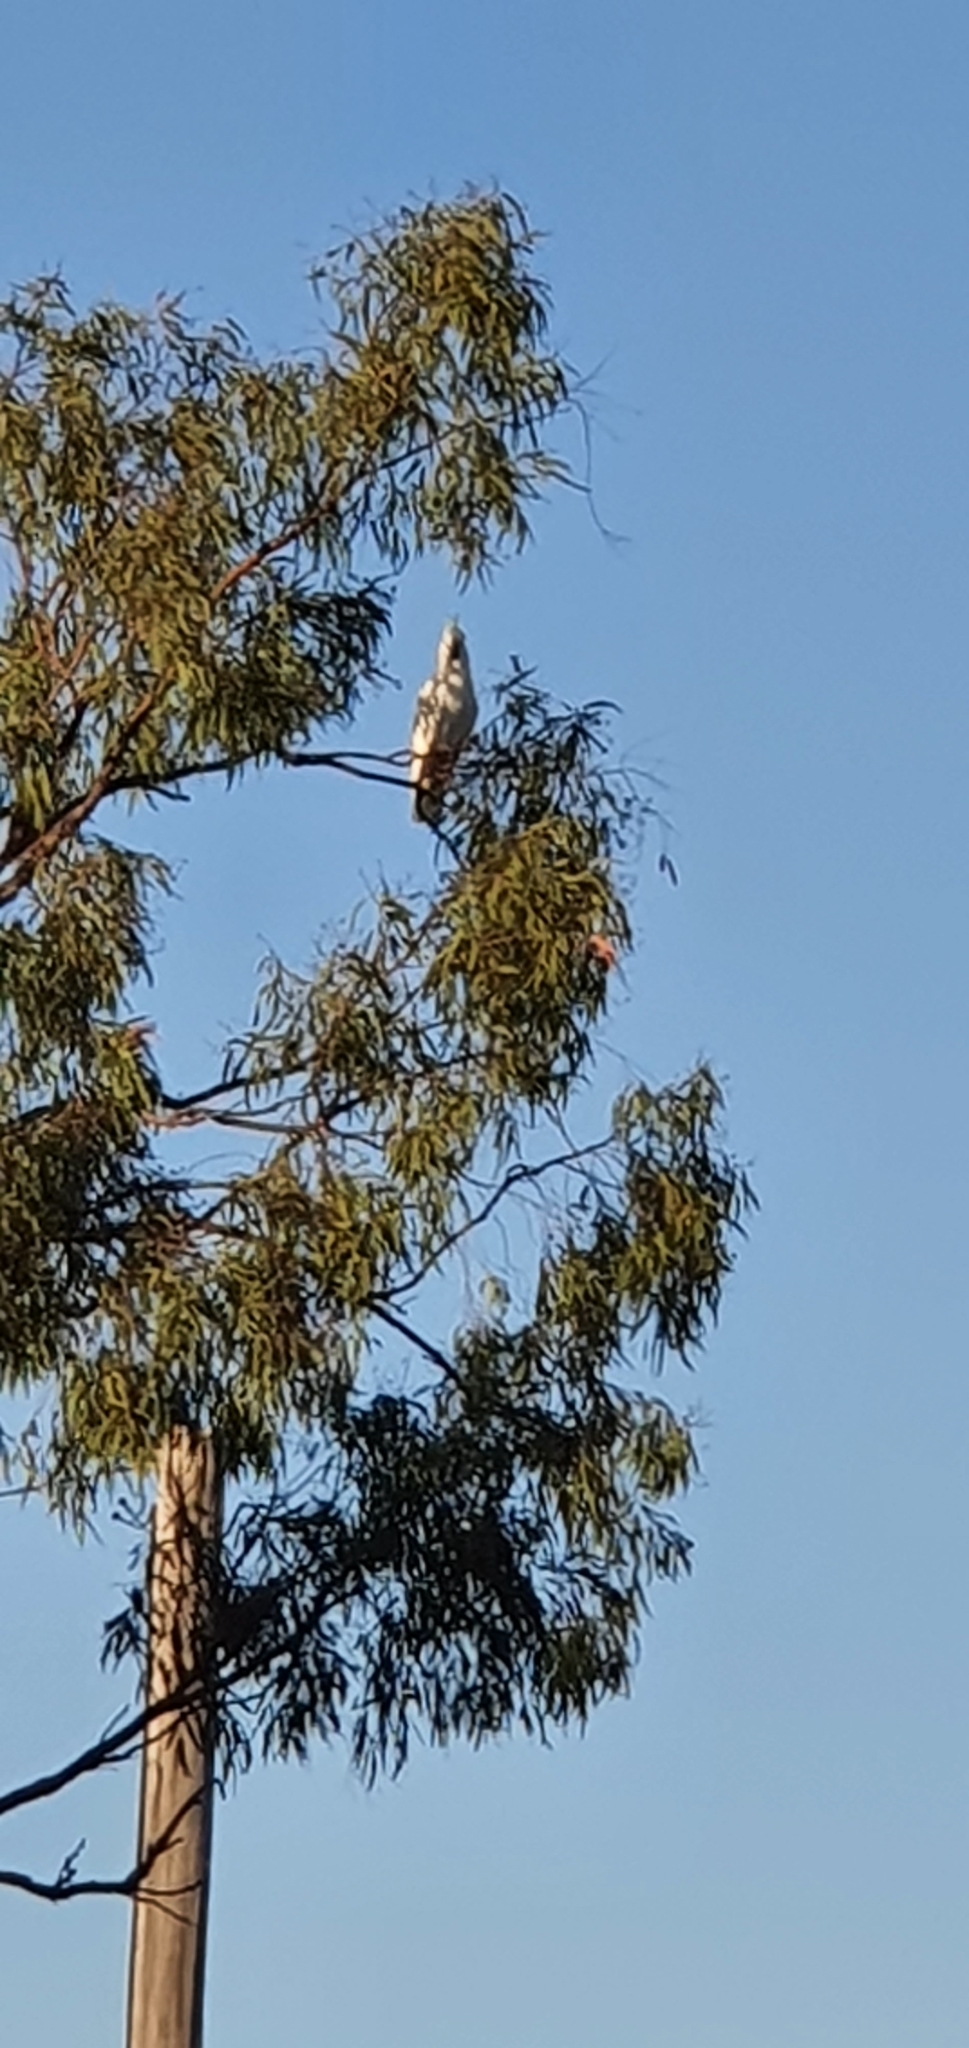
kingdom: Animalia
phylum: Chordata
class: Aves
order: Psittaciformes
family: Psittacidae
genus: Cacatua
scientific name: Cacatua galerita
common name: Sulphur-crested cockatoo
